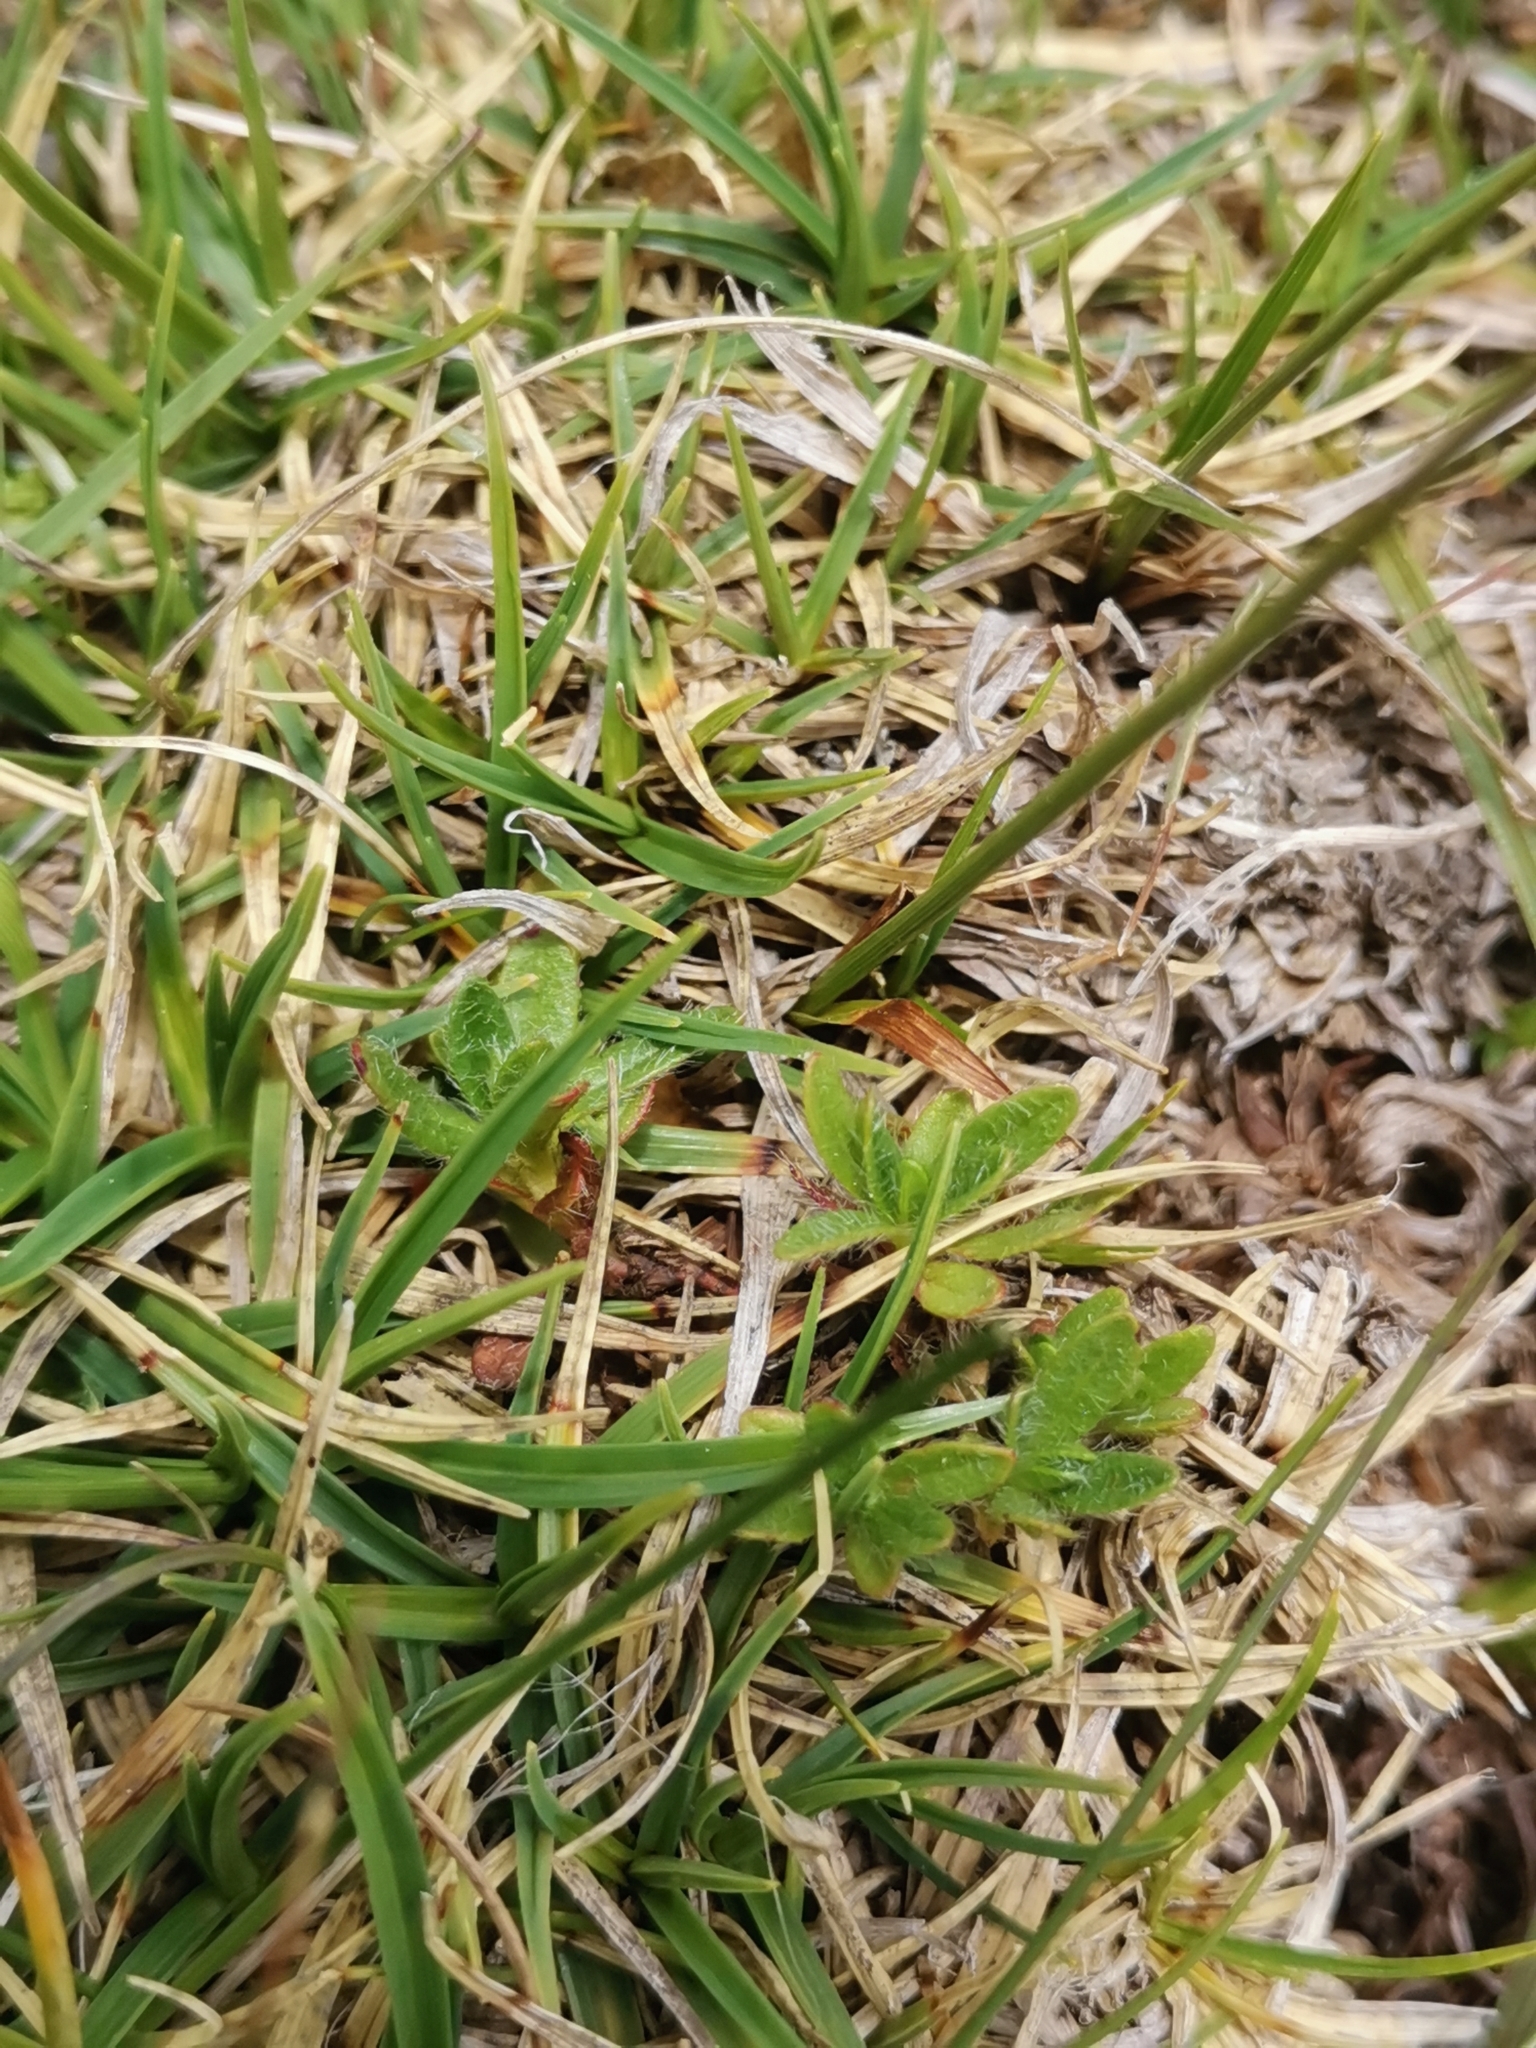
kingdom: Plantae
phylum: Tracheophyta
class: Liliopsida
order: Poales
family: Cyperaceae
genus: Carex
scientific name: Carex firma
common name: Dwarf pillow sedge
